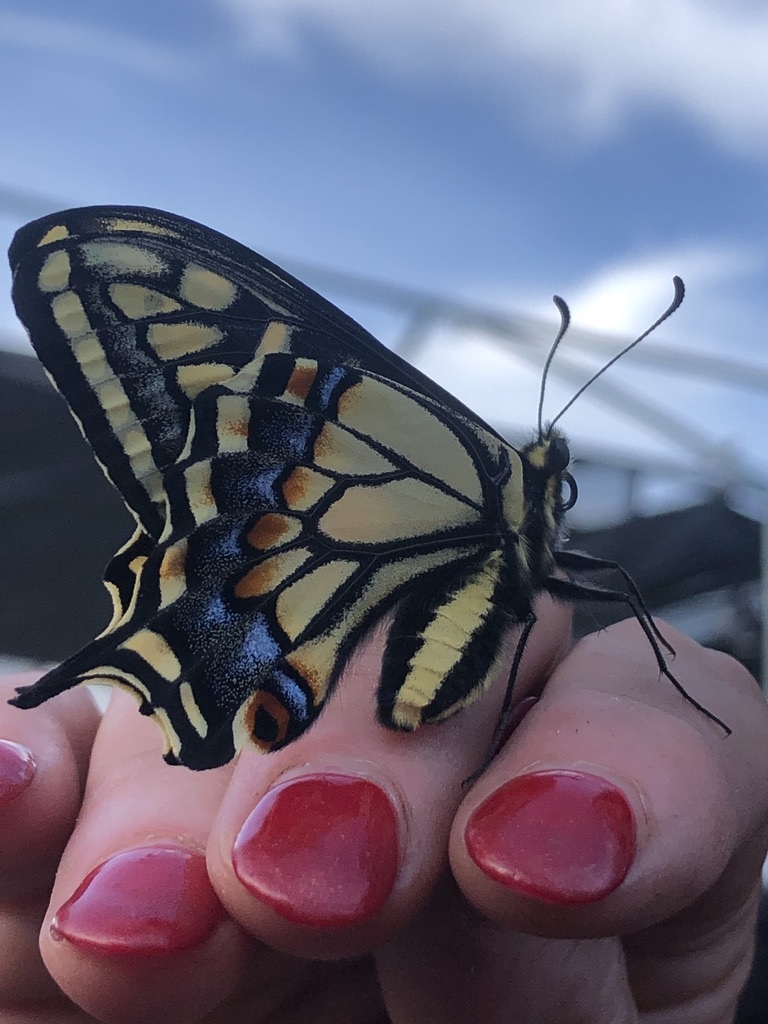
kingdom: Animalia
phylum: Arthropoda
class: Insecta
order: Lepidoptera
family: Papilionidae
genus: Papilio
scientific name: Papilio zelicaon
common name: Anise swallowtail
